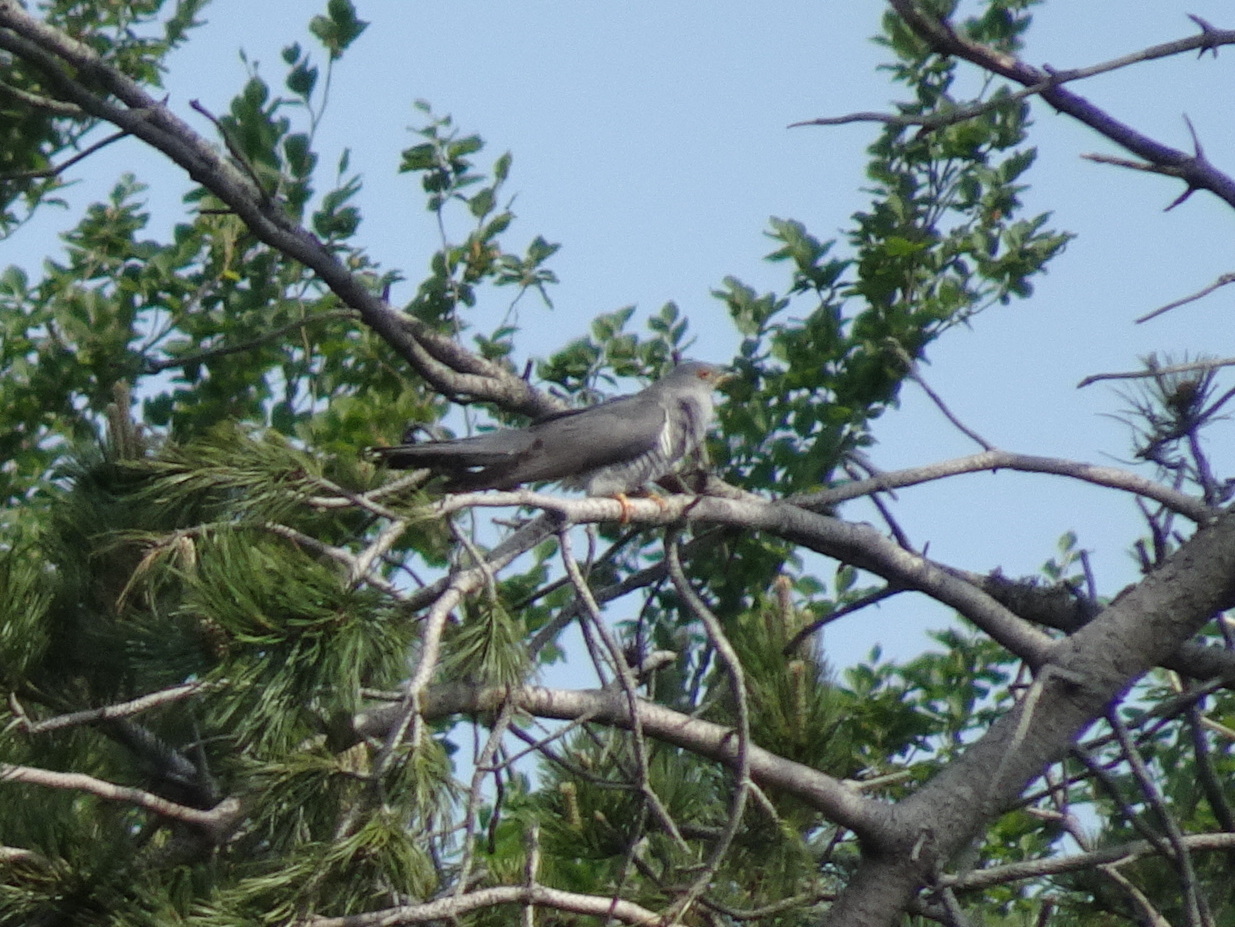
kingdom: Animalia
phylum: Chordata
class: Aves
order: Cuculiformes
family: Cuculidae
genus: Cuculus
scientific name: Cuculus canorus
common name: Common cuckoo
